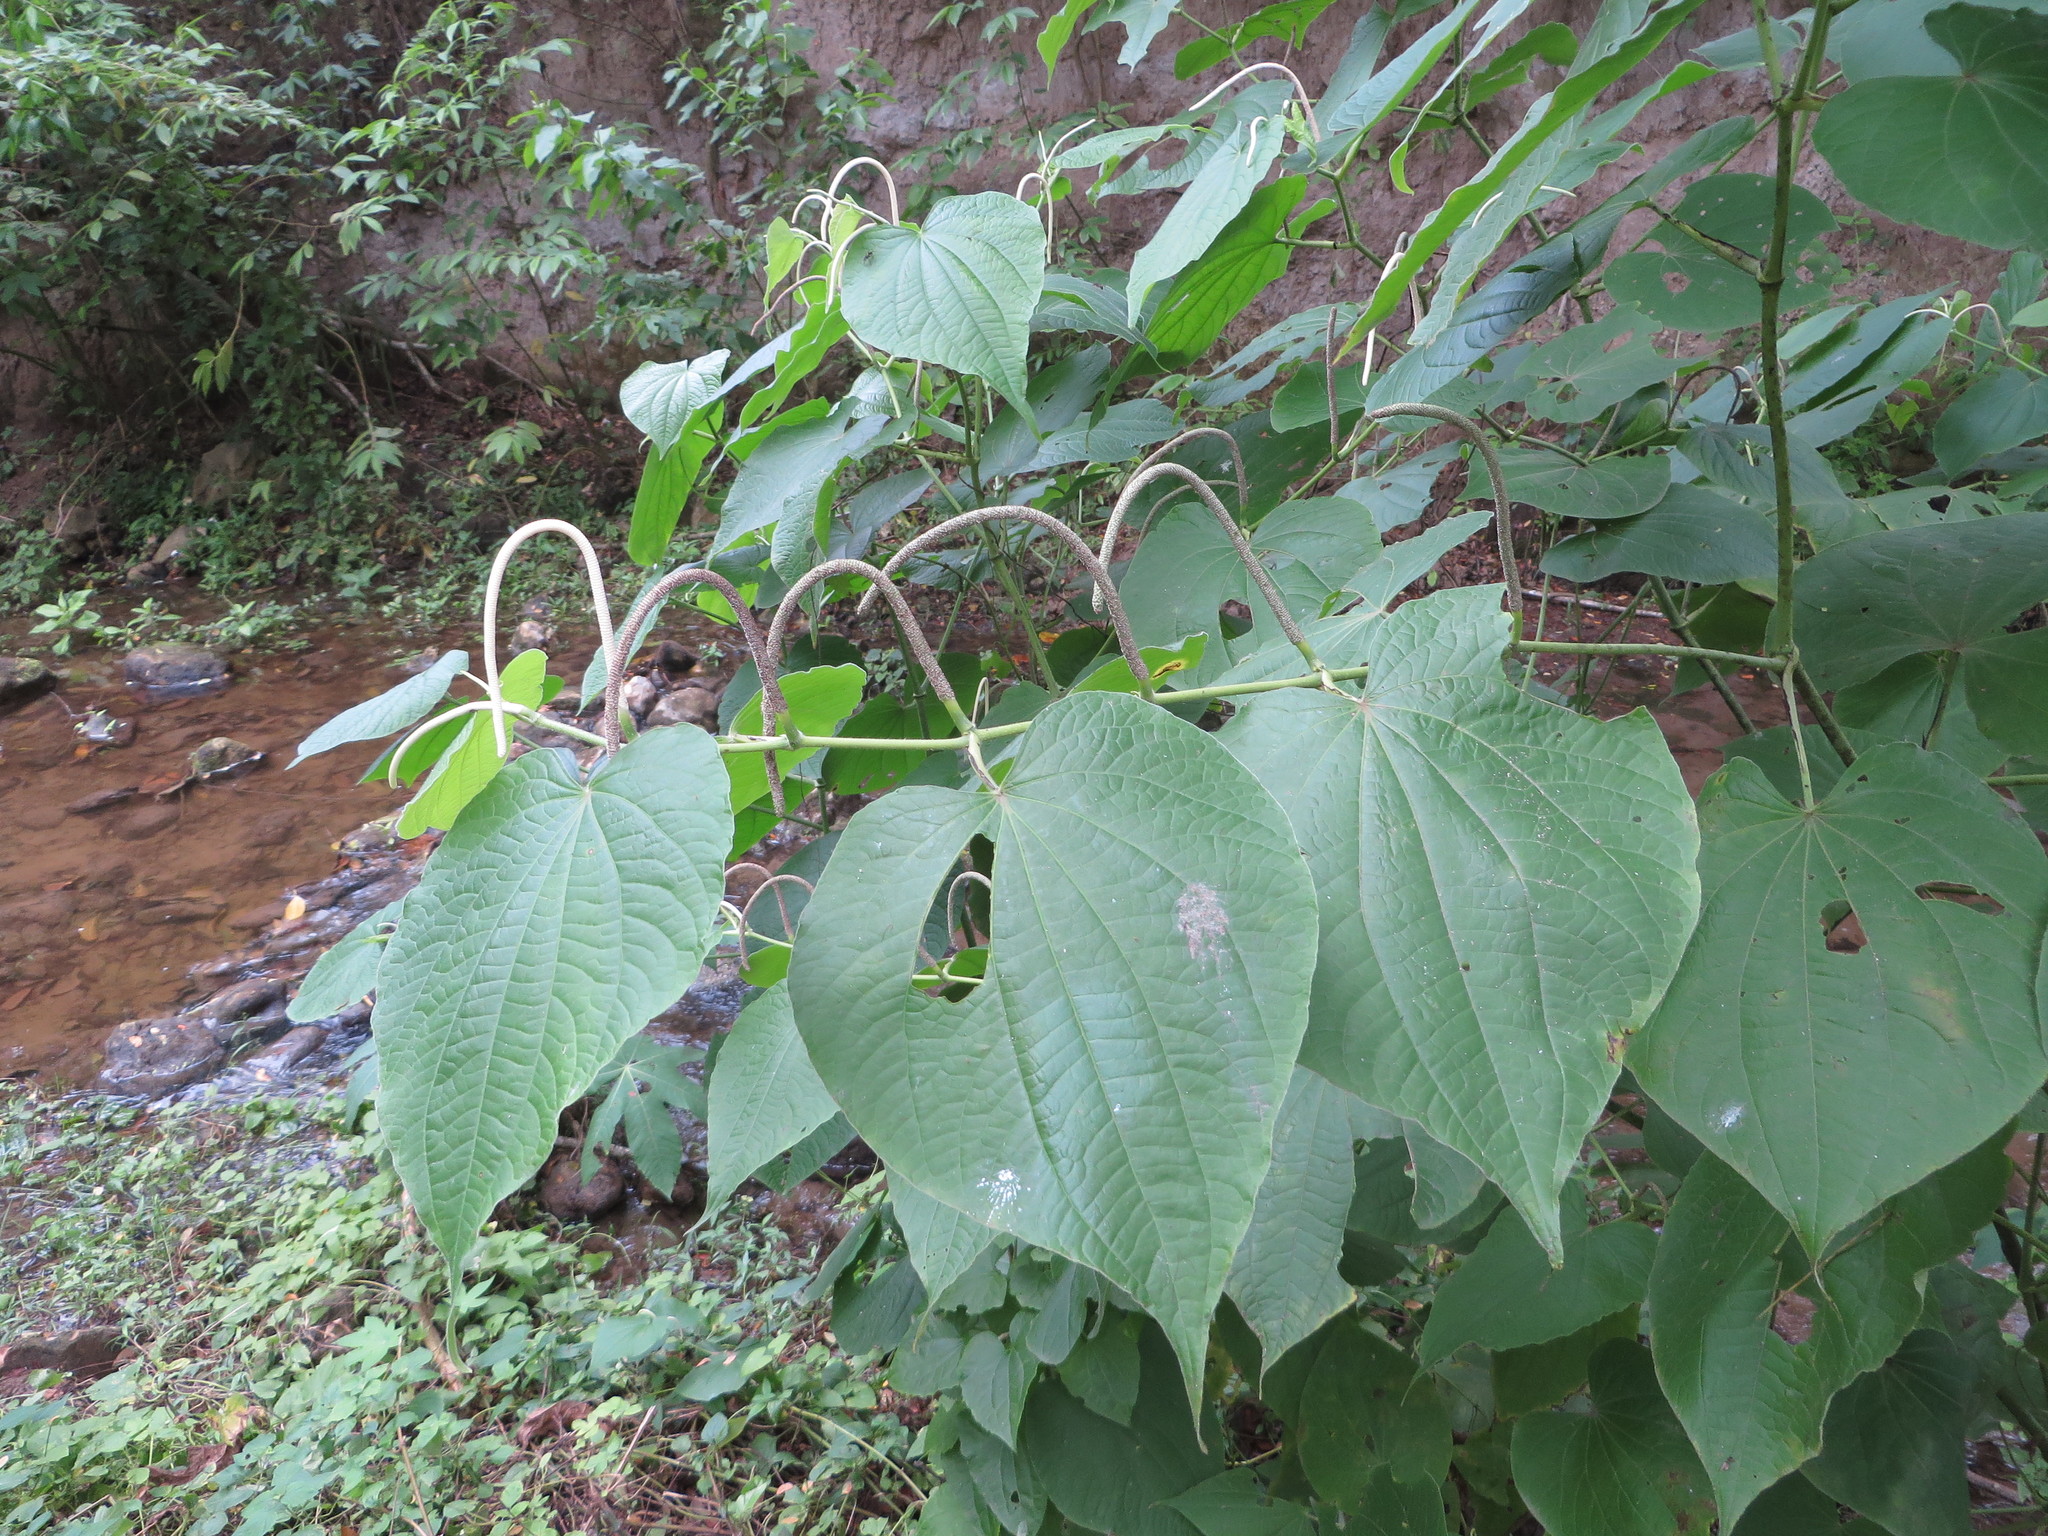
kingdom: Plantae
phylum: Tracheophyta
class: Magnoliopsida
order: Piperales
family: Piperaceae
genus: Piper
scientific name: Piper marginatum
